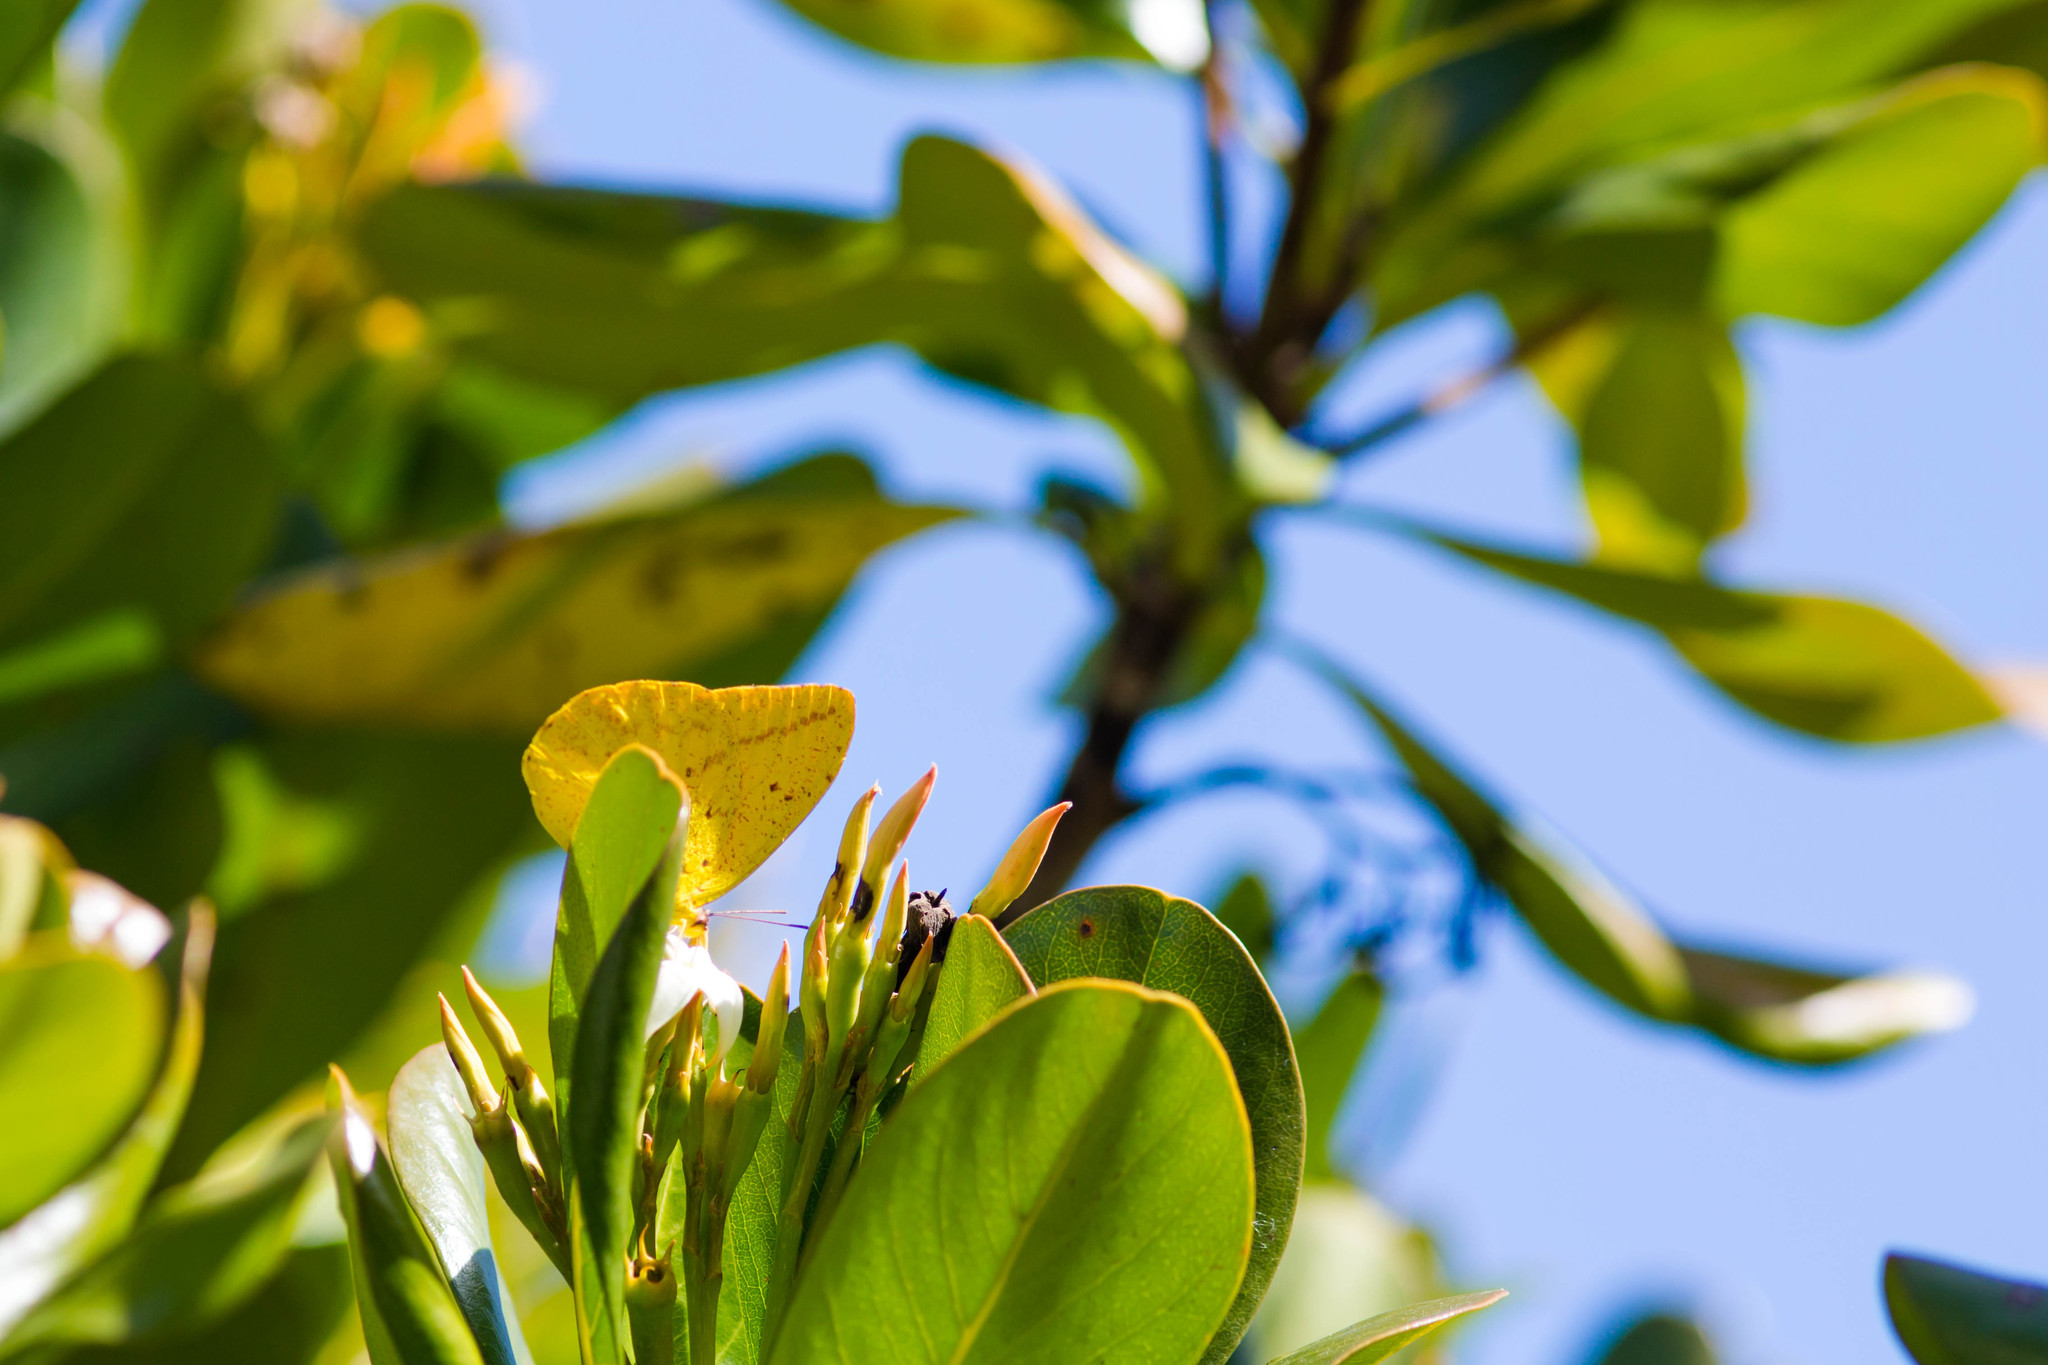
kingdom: Animalia
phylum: Arthropoda
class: Insecta
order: Lepidoptera
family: Pieridae
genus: Phoebis
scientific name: Phoebis agarithe
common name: Large orange sulphur
